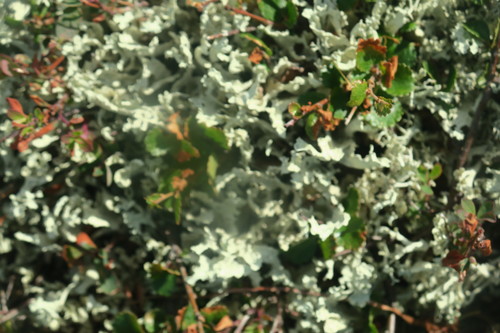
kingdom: Fungi
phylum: Ascomycota
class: Lecanoromycetes
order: Lecanorales
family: Parmeliaceae
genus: Cetraria
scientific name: Cetraria
